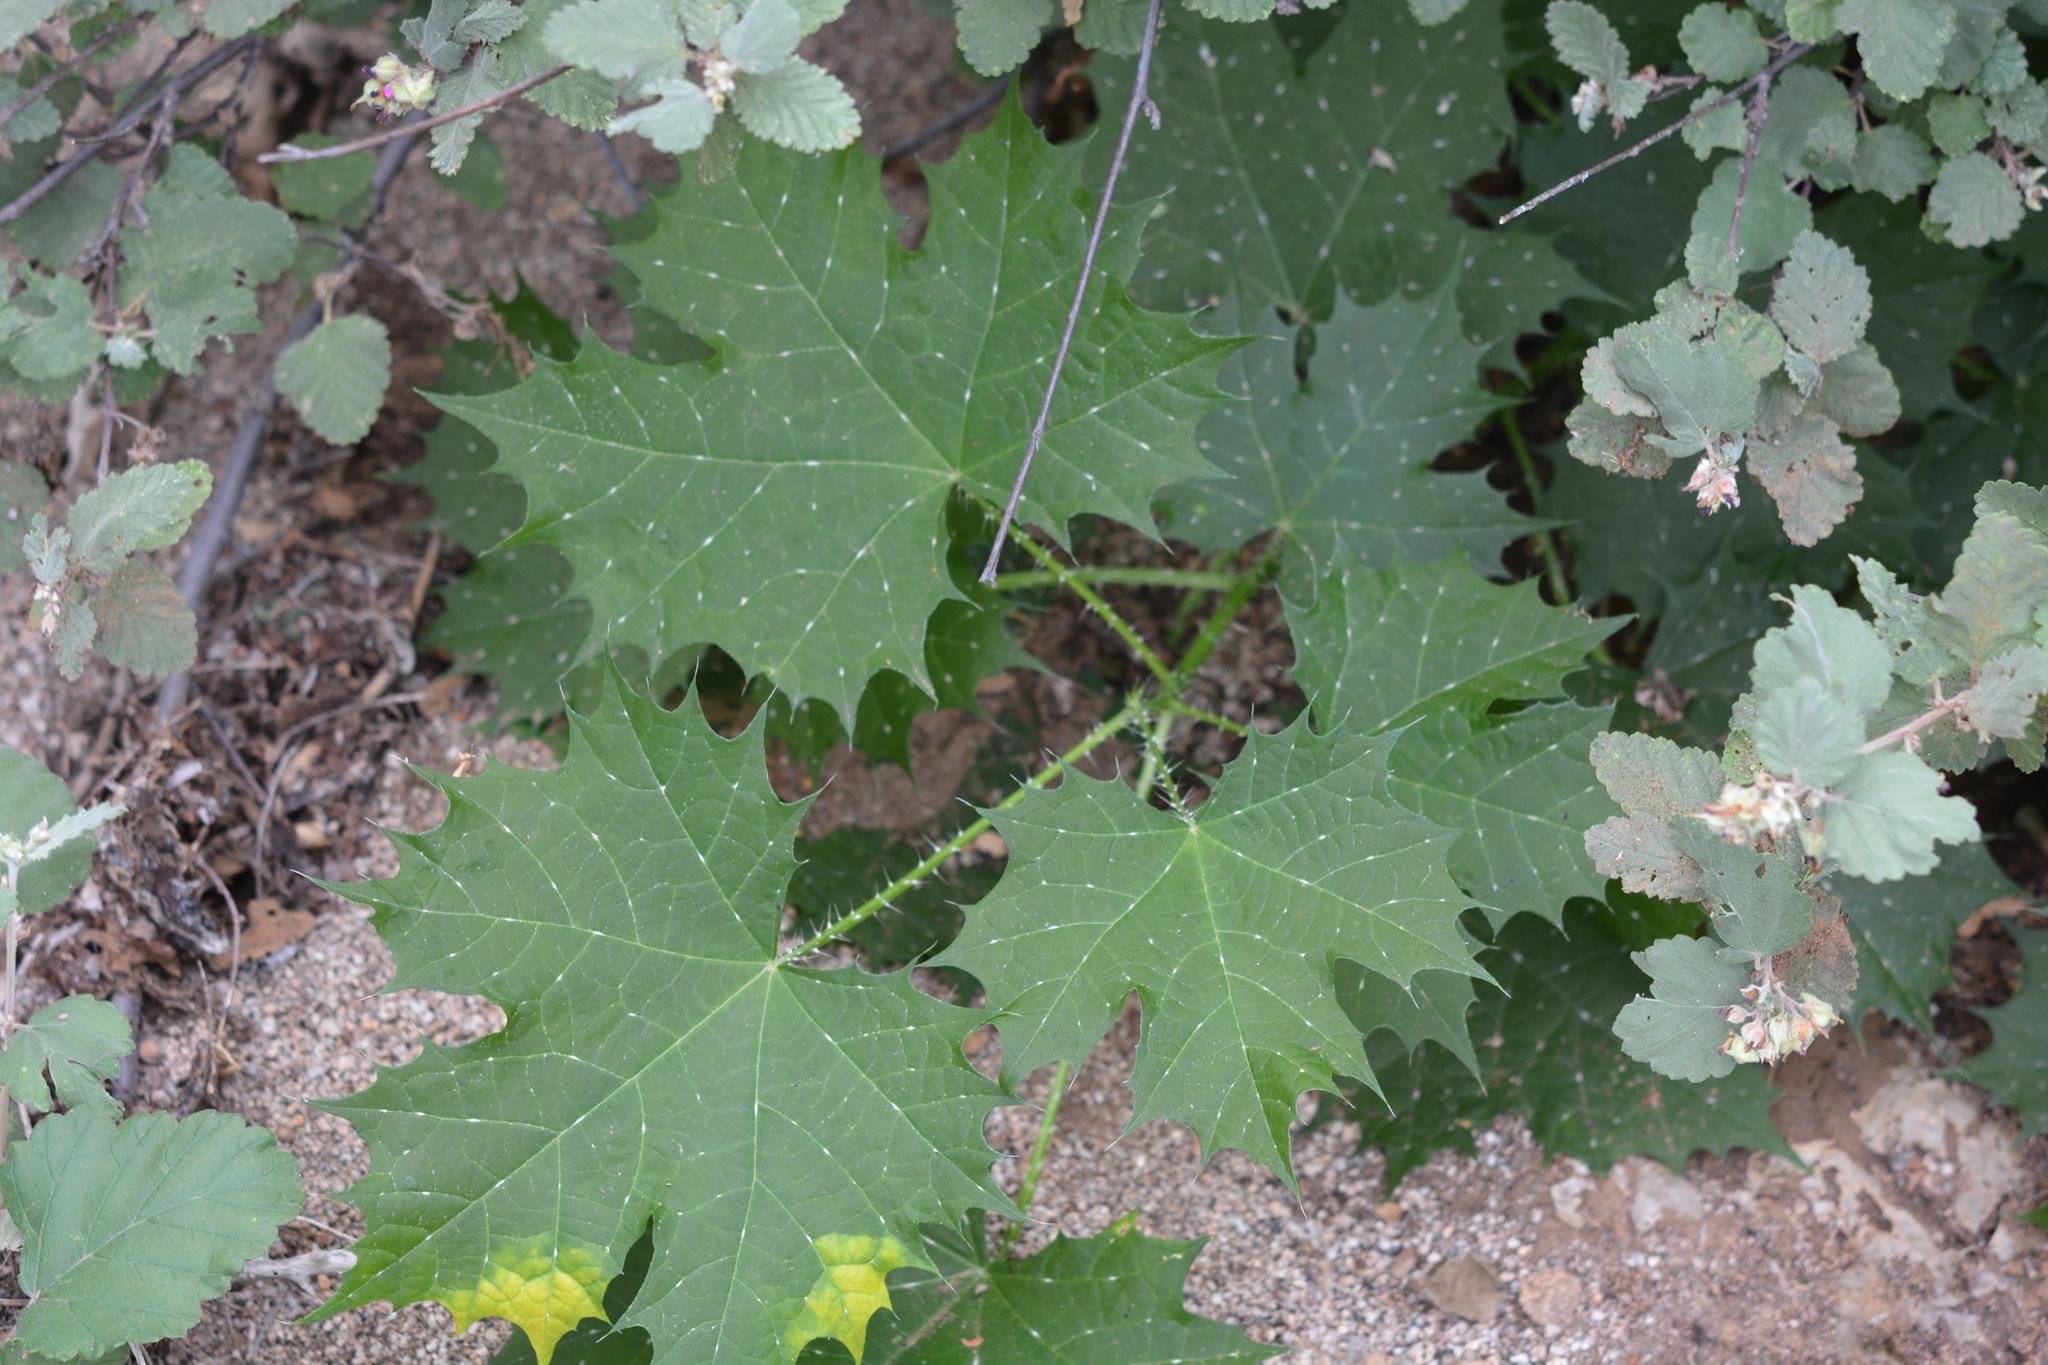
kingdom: Plantae
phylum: Tracheophyta
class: Magnoliopsida
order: Malpighiales
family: Euphorbiaceae
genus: Cnidoscolus
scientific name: Cnidoscolus maculatus
